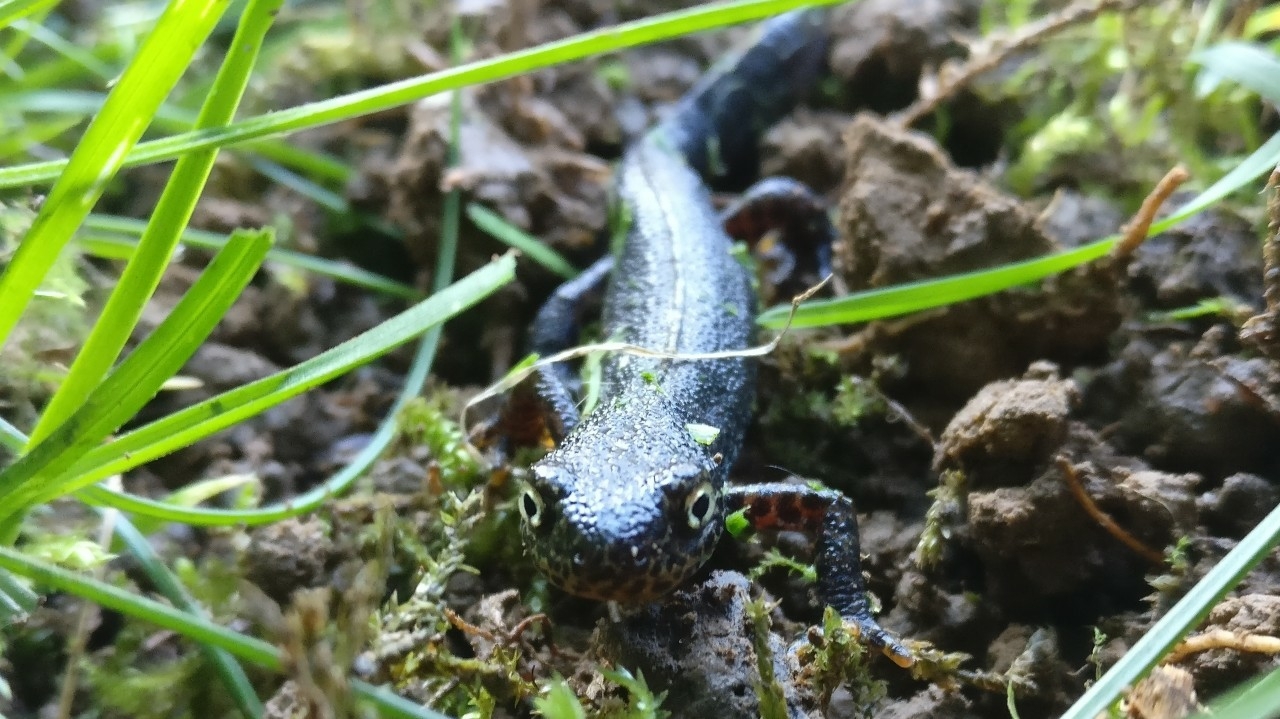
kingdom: Animalia
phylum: Chordata
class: Amphibia
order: Caudata
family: Salamandridae
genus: Ichthyosaura
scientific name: Ichthyosaura alpestris
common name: Alpine newt
